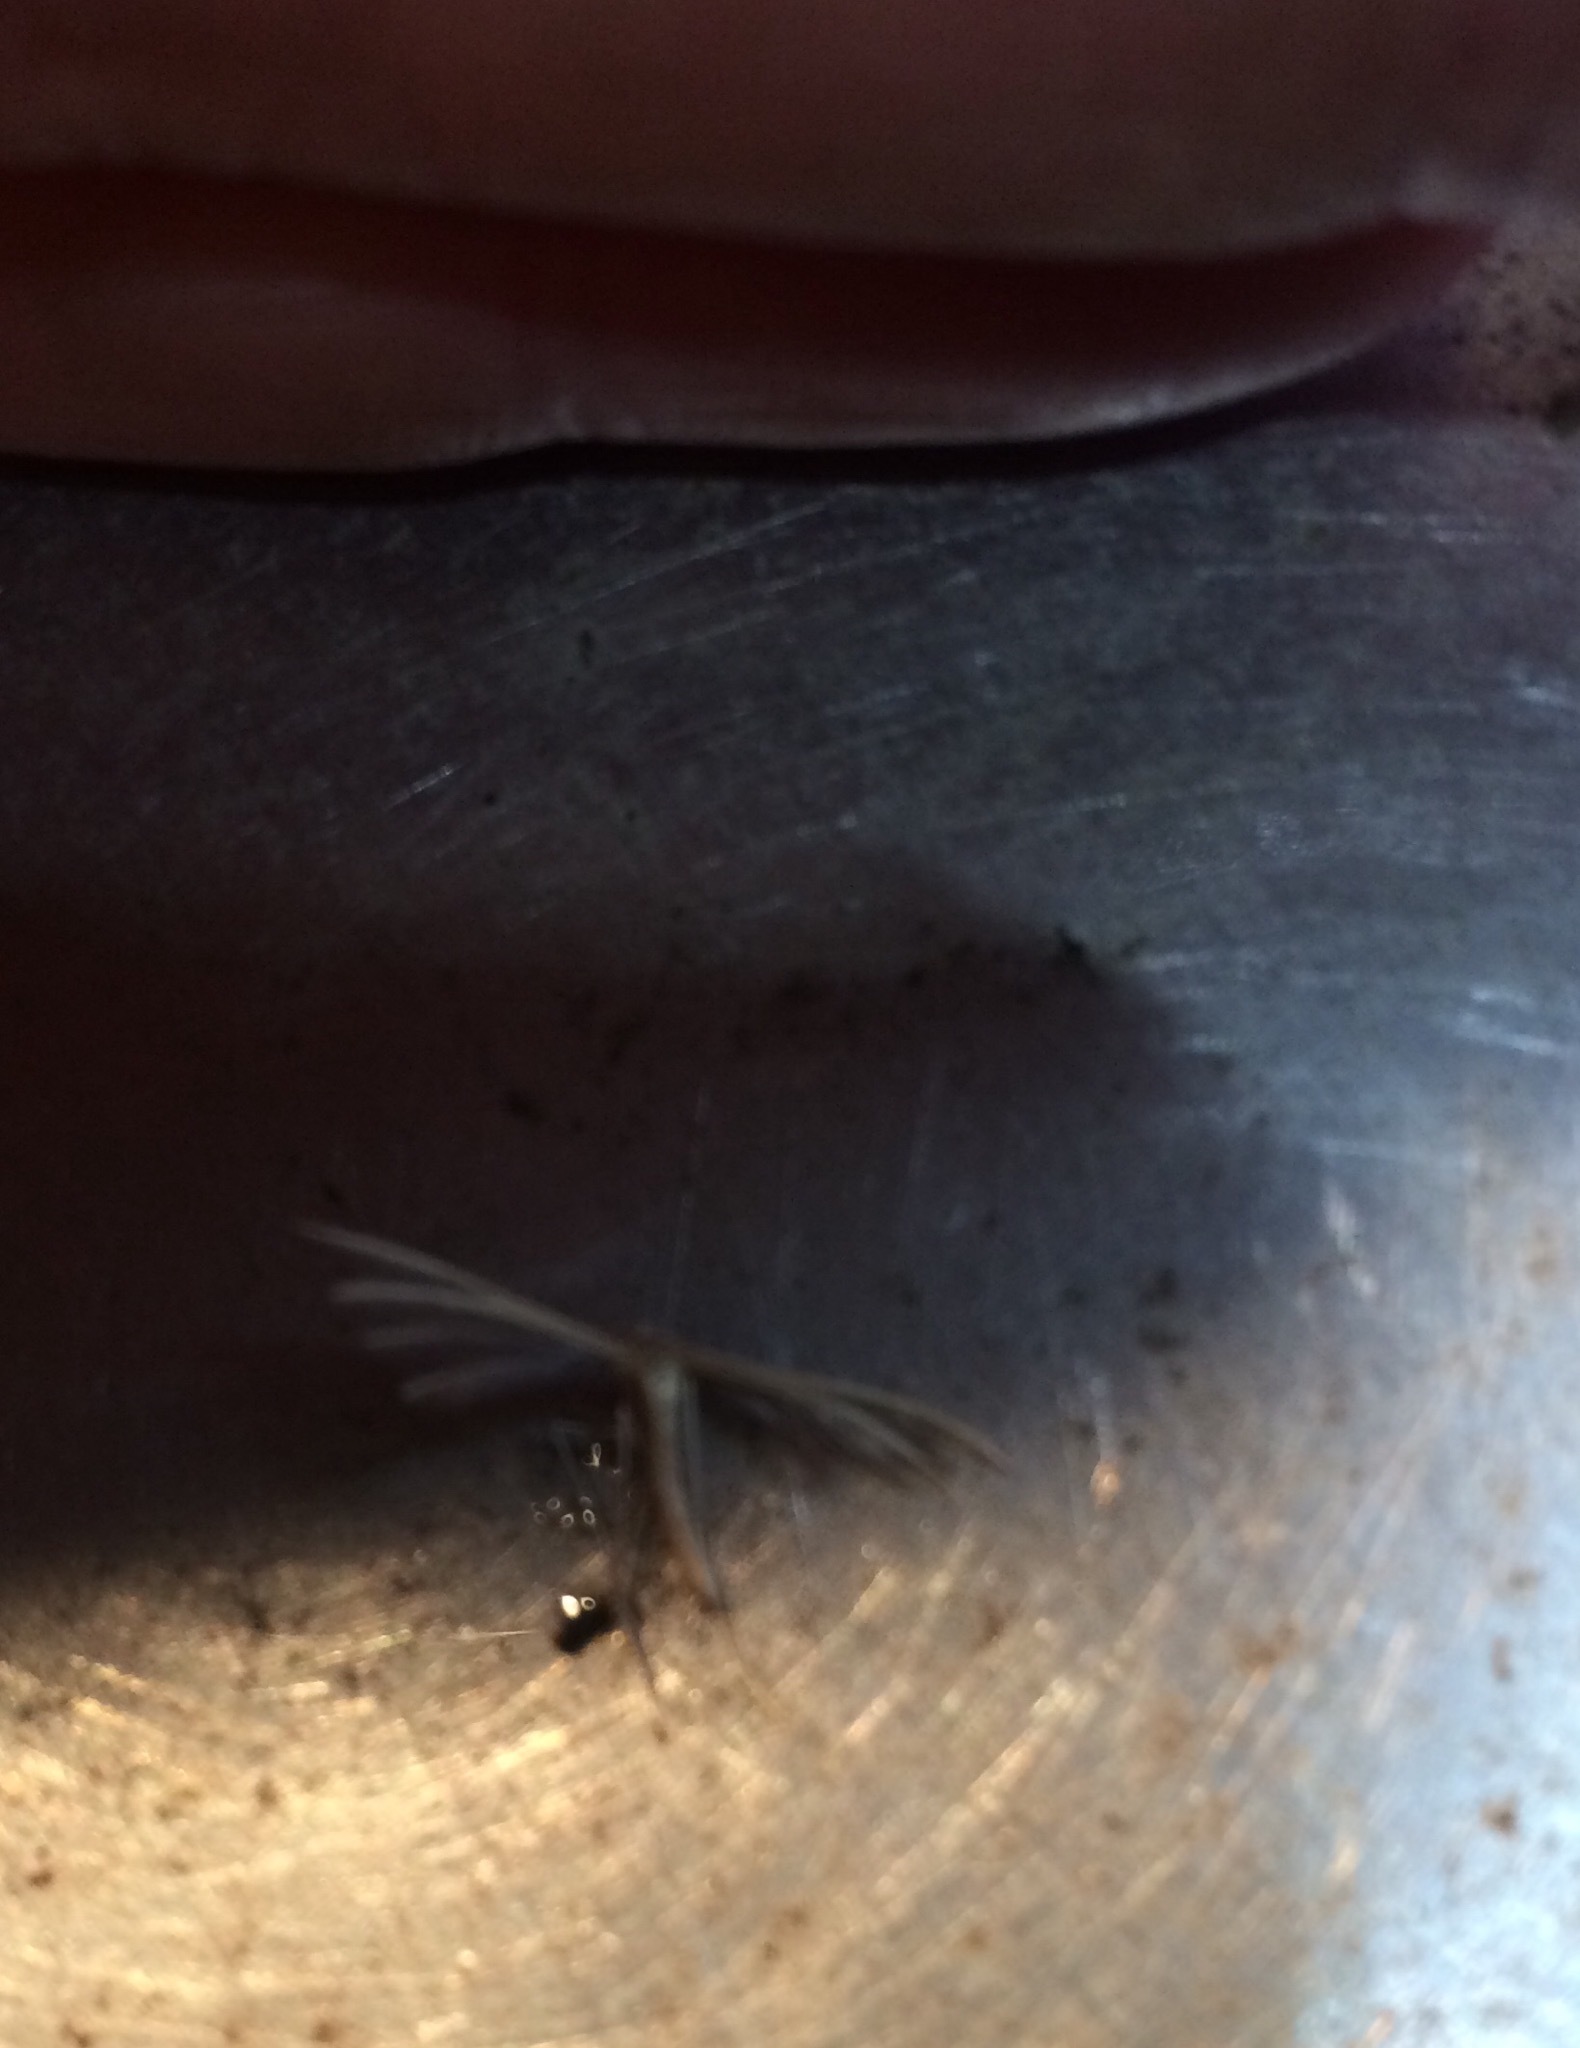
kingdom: Animalia
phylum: Arthropoda
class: Insecta
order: Lepidoptera
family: Pterophoridae
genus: Pterophorus
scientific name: Pterophorus innotatalis
